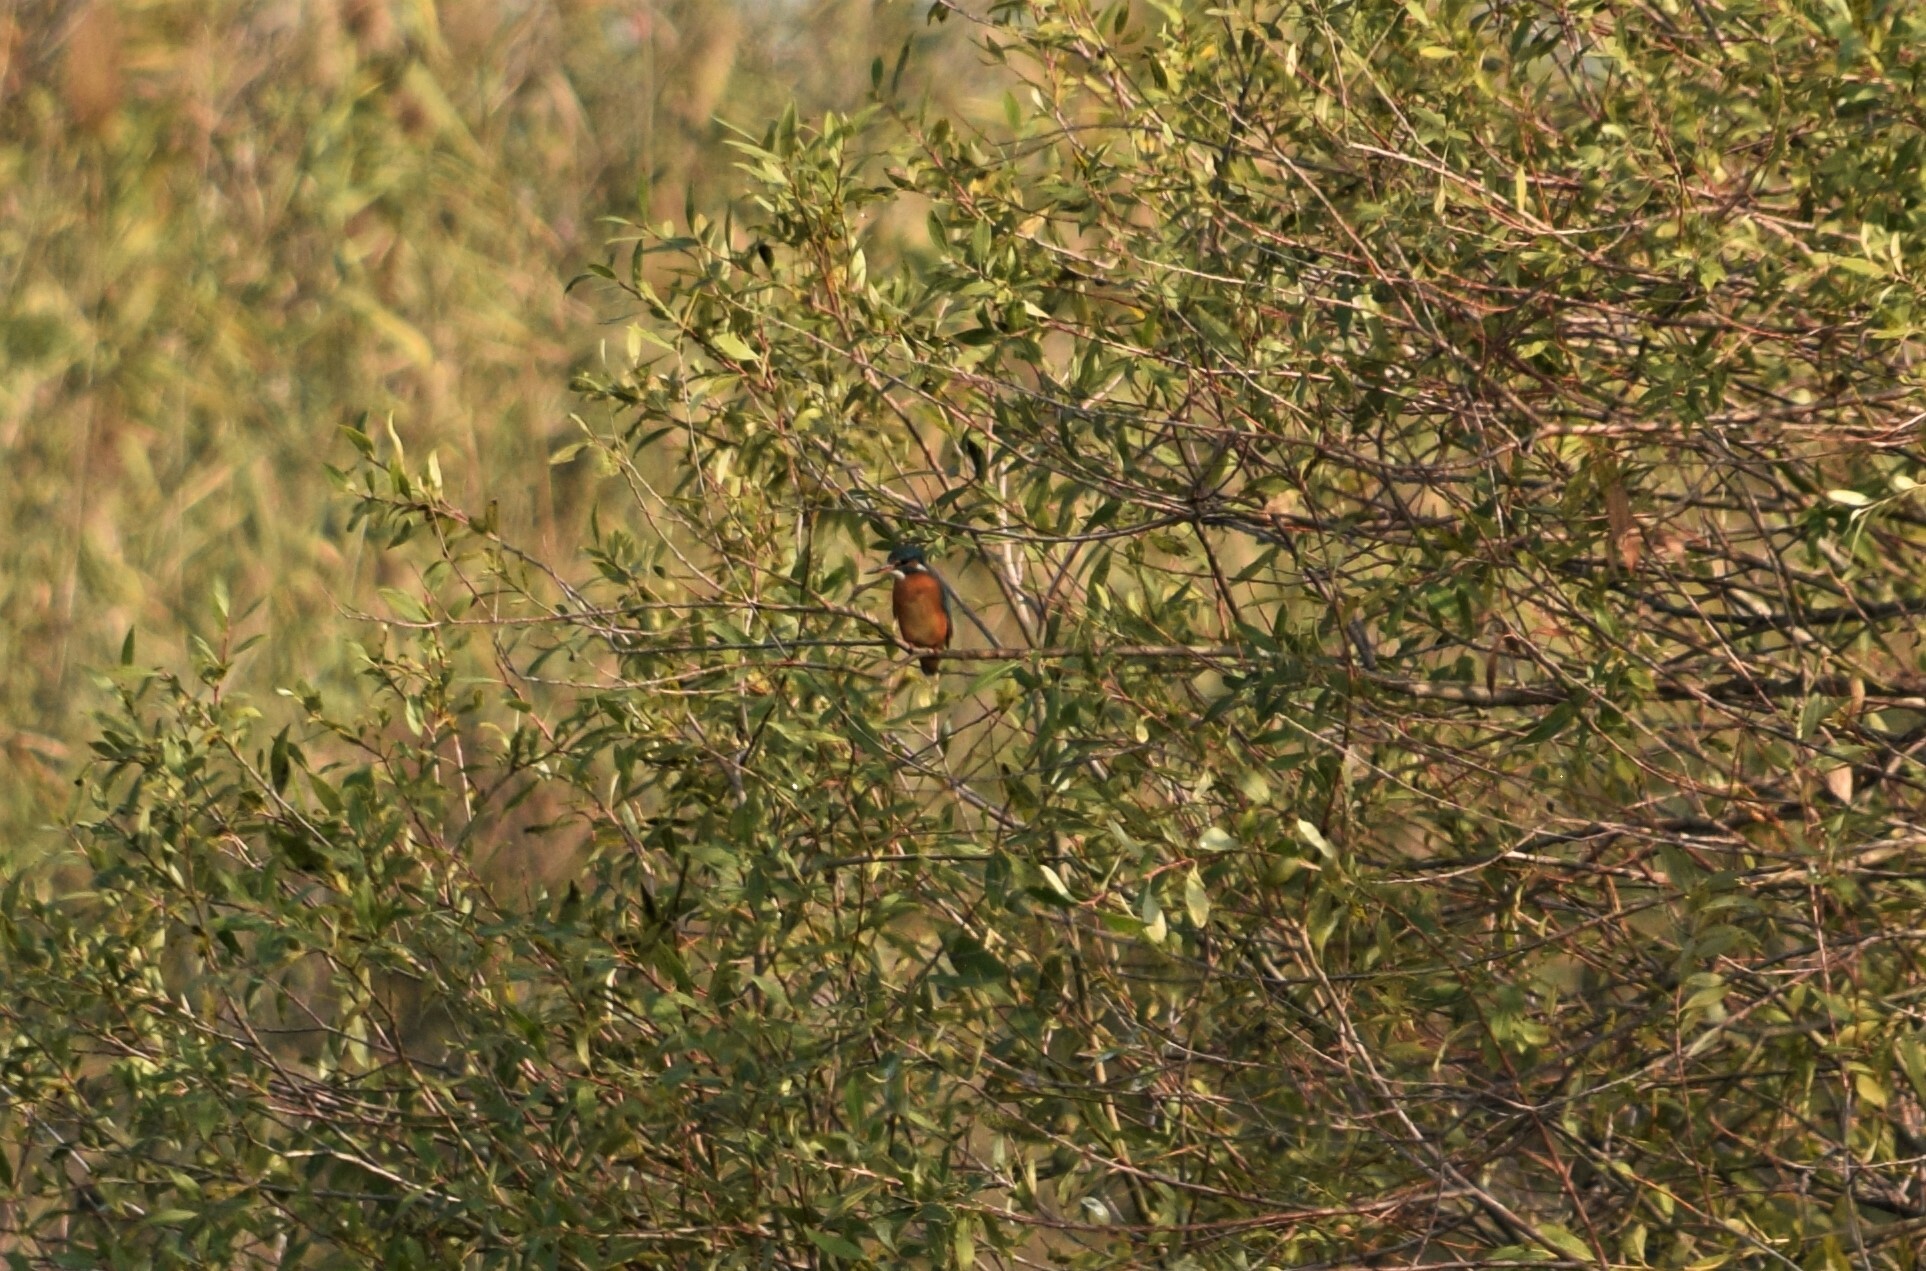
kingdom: Animalia
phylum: Chordata
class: Aves
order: Coraciiformes
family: Alcedinidae
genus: Alcedo
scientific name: Alcedo atthis
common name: Common kingfisher
